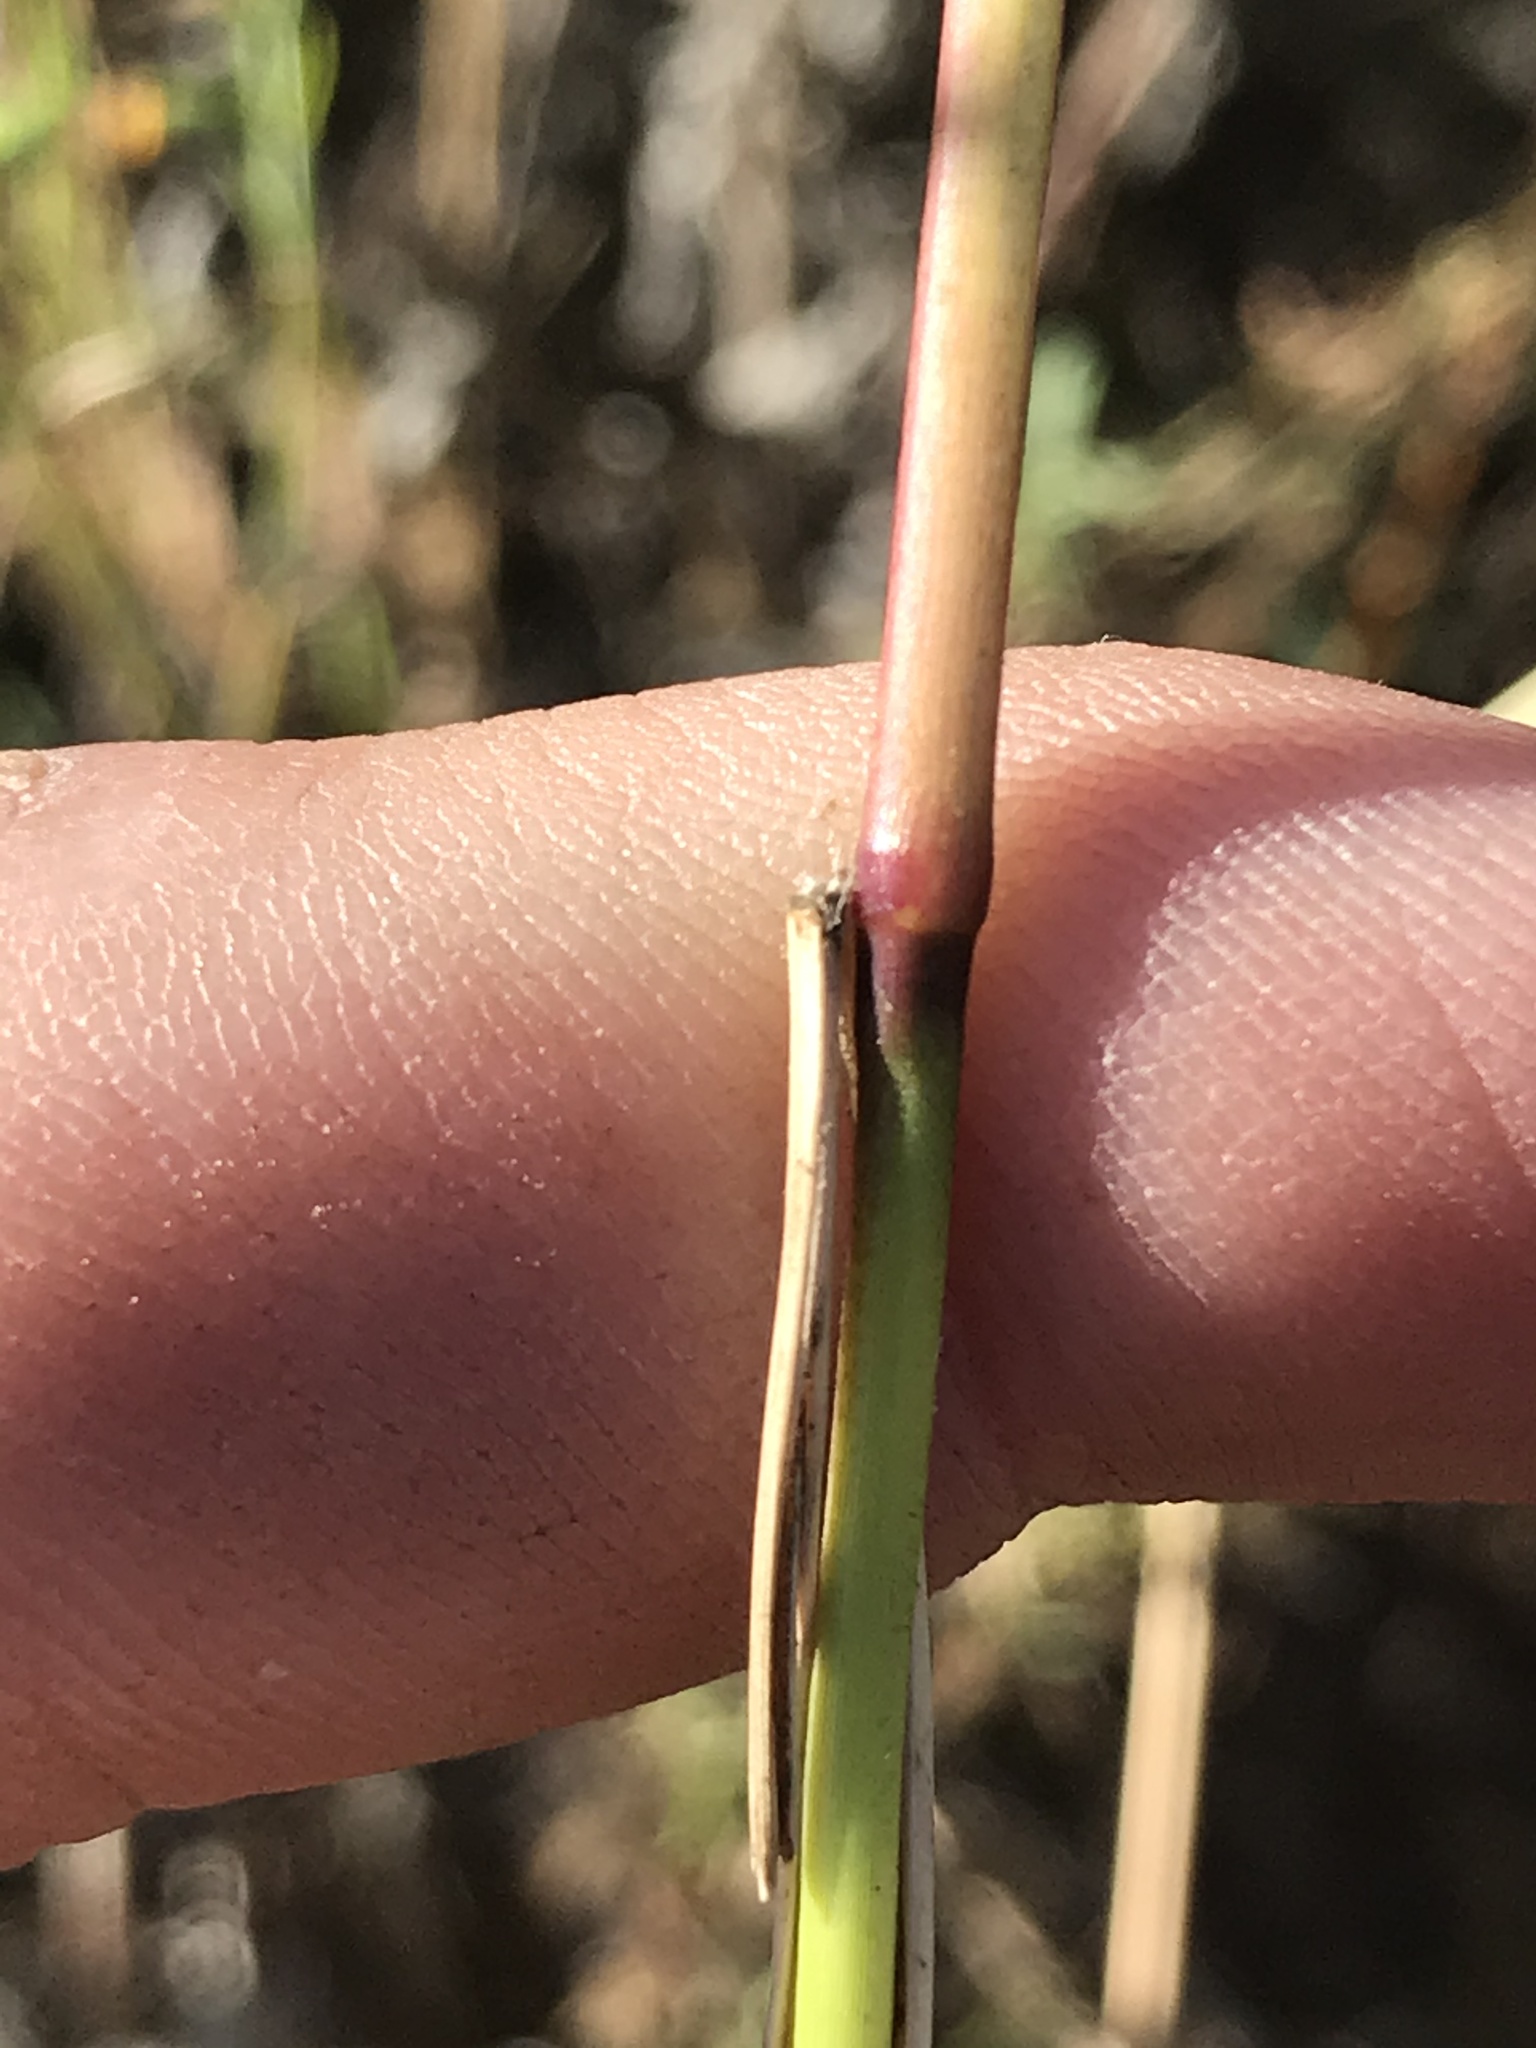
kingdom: Plantae
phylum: Tracheophyta
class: Liliopsida
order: Poales
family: Poaceae
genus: Tridens
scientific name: Tridens flavus
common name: Purpletop
